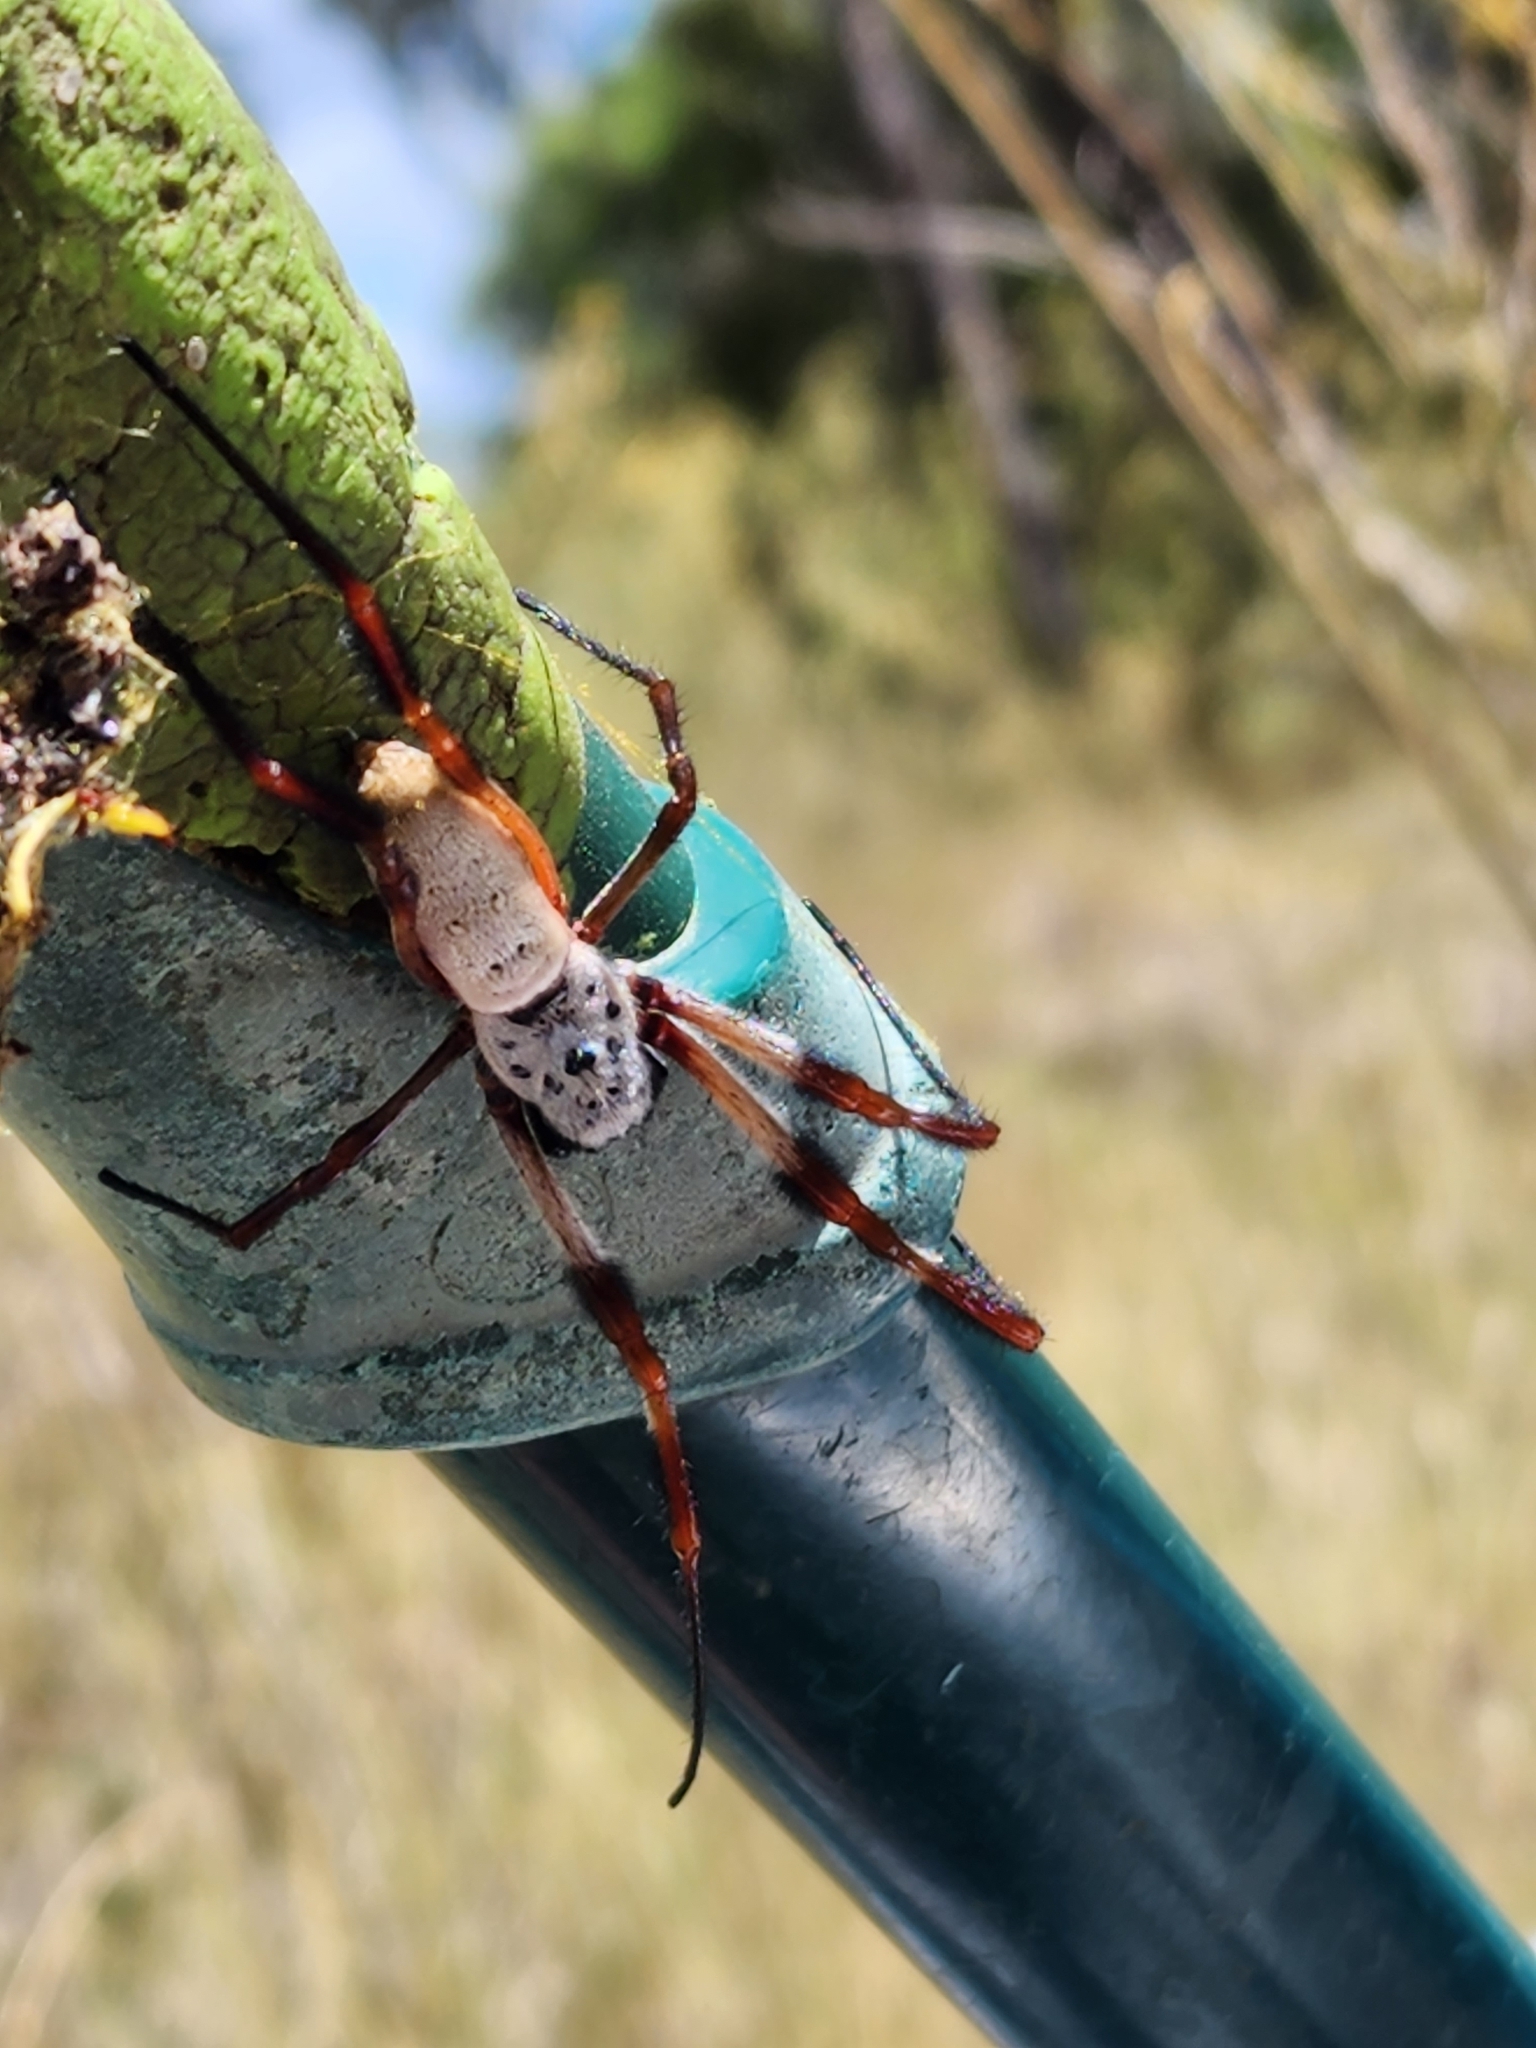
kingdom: Animalia
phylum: Arthropoda
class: Arachnida
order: Araneae
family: Araneidae
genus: Trichonephila
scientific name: Trichonephila edulis
